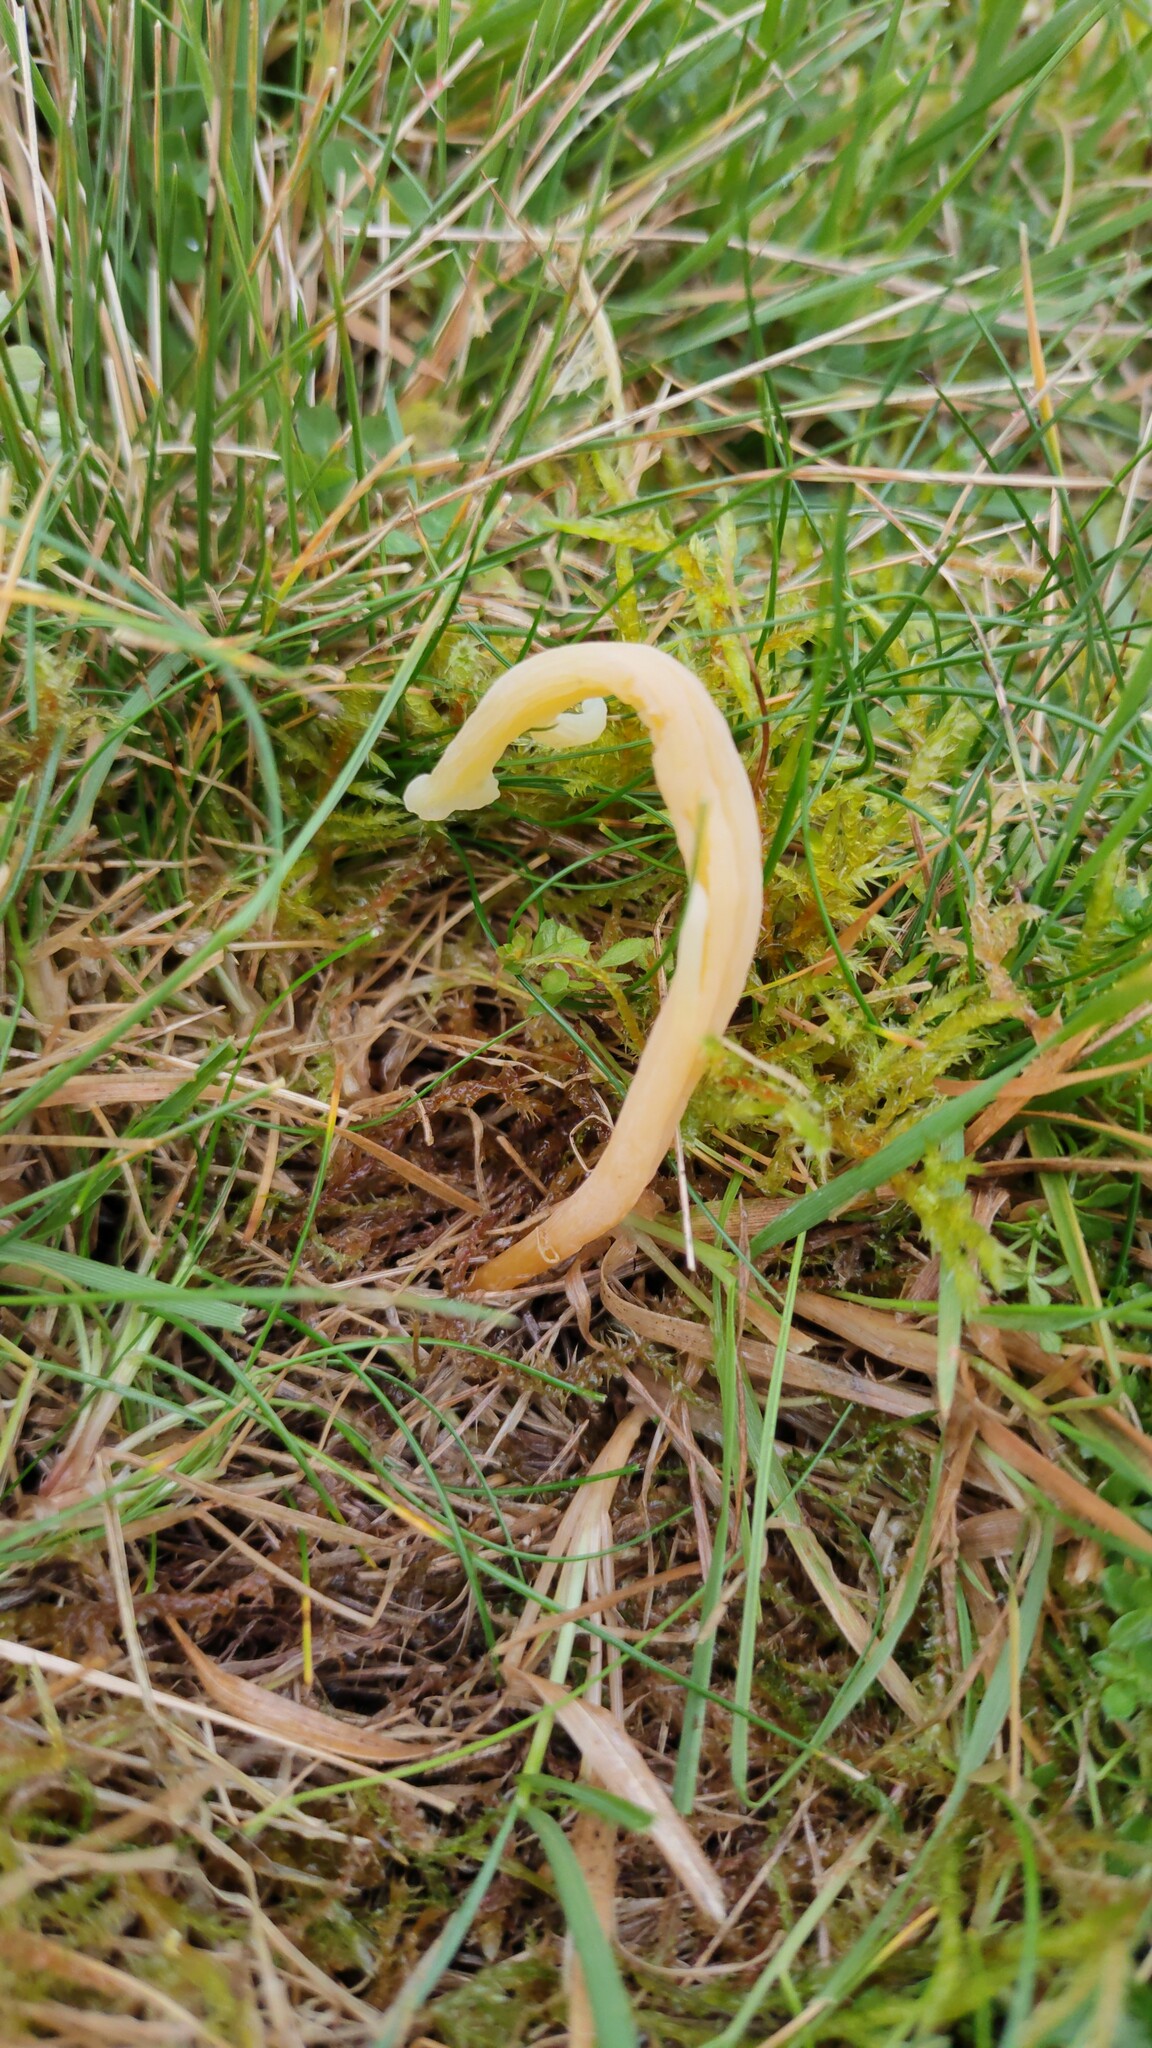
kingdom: Fungi
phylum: Basidiomycota
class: Agaricomycetes
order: Agaricales
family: Clavariaceae
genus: Clavaria
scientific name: Clavaria straminea
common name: Straw club
